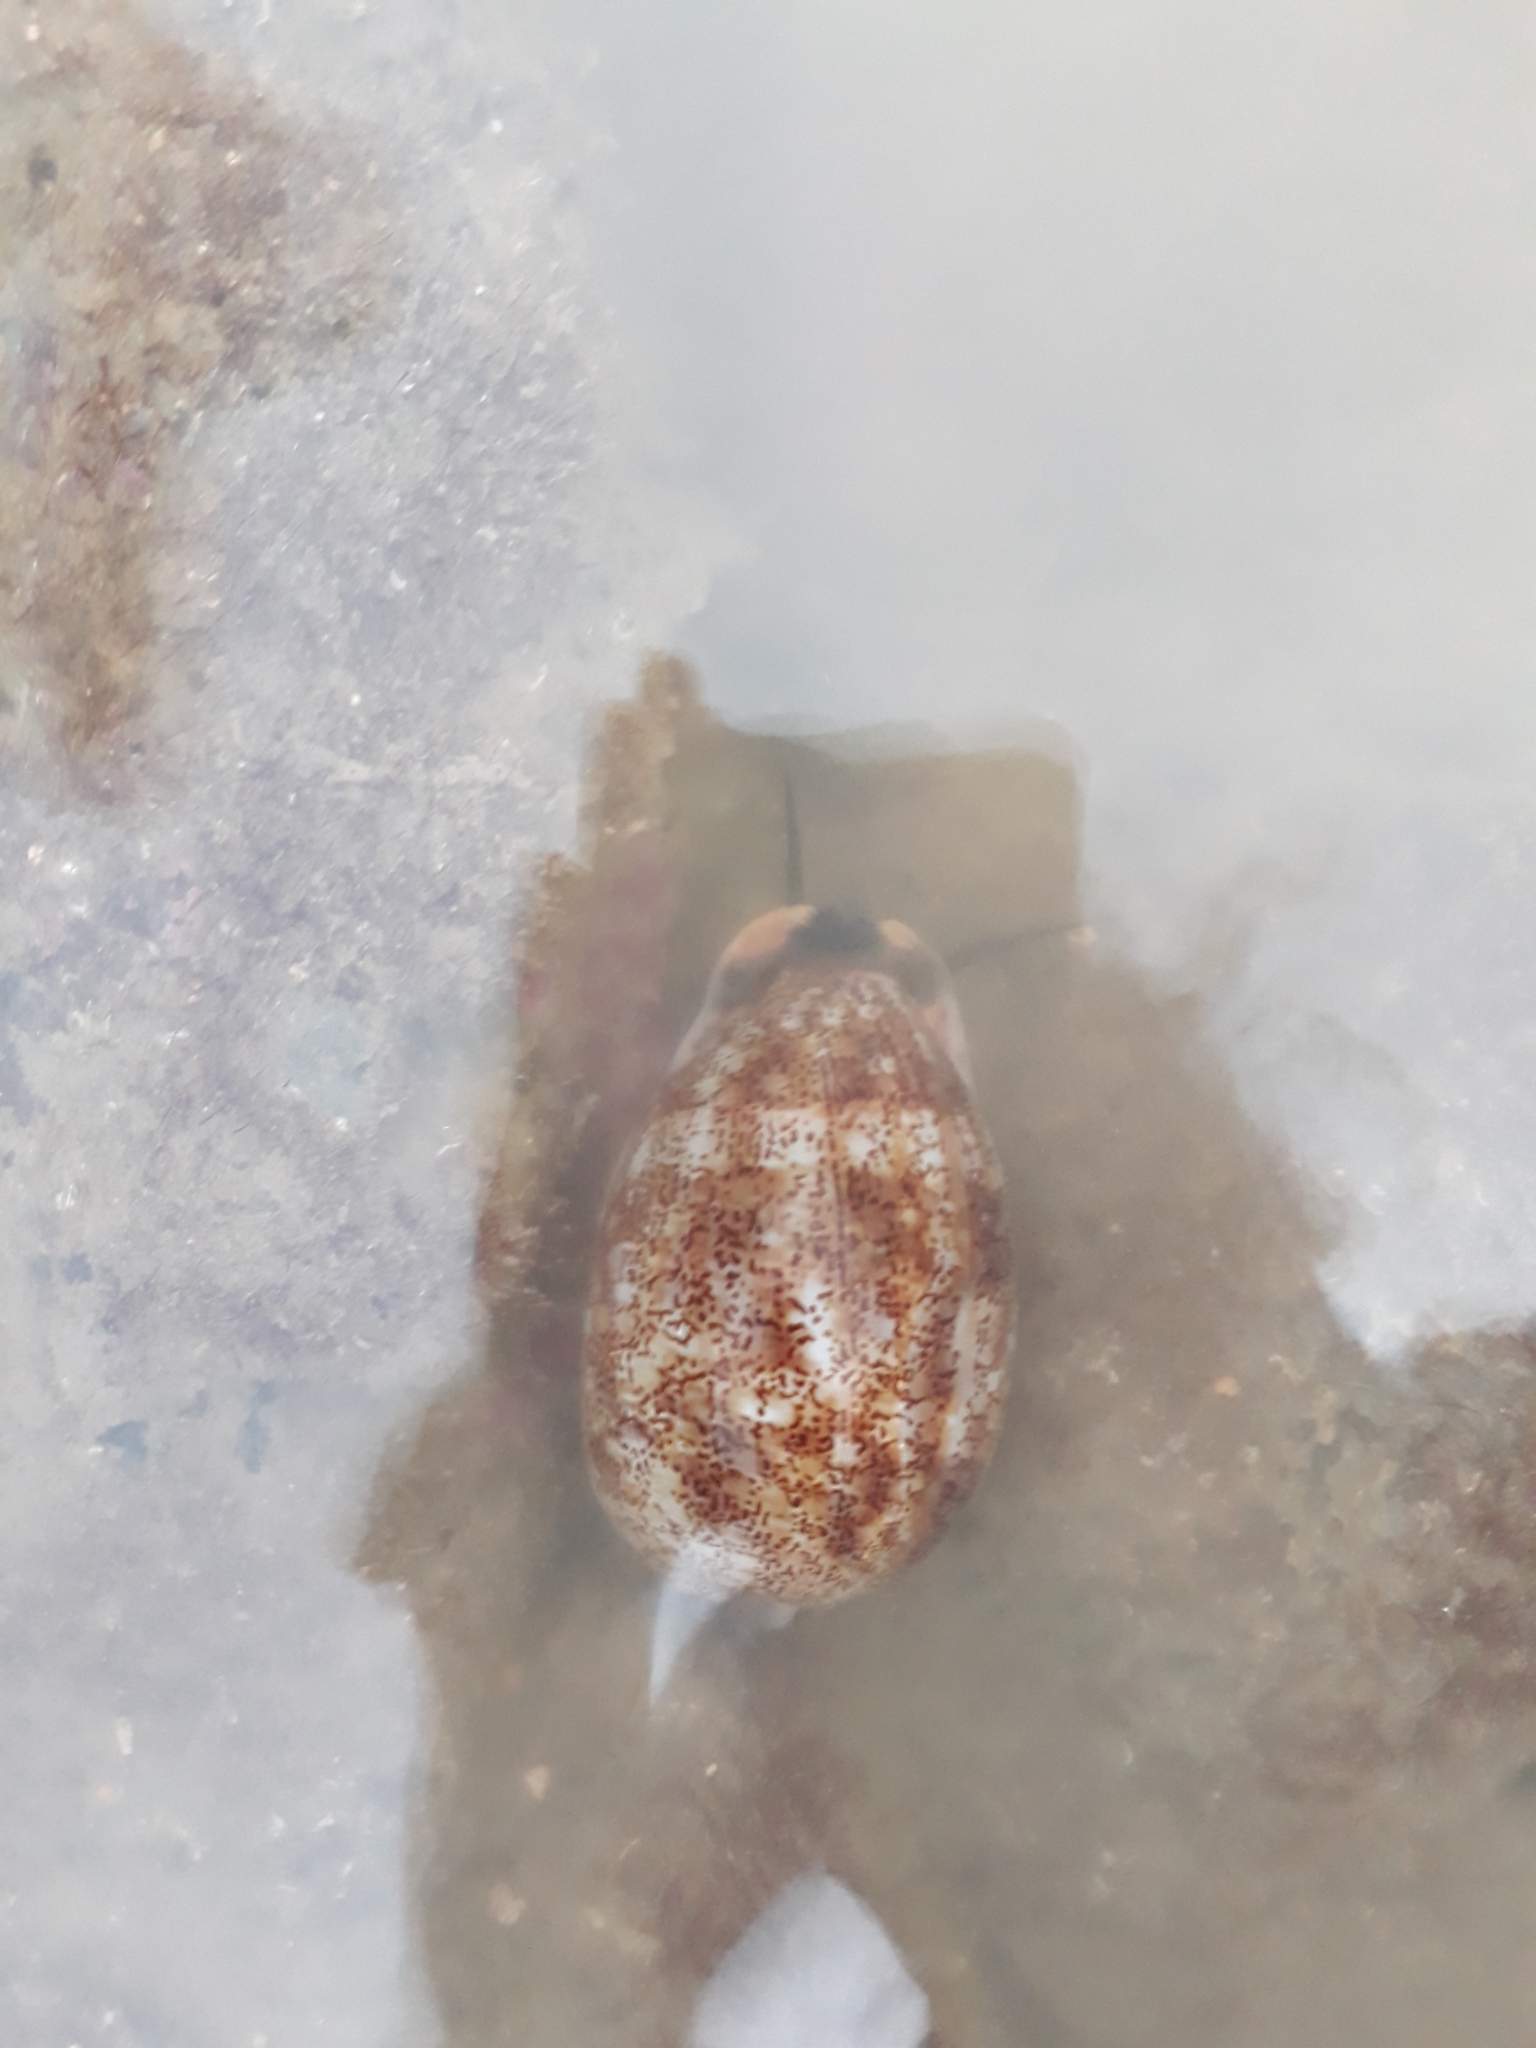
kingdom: Animalia
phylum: Mollusca
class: Gastropoda
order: Littorinimorpha
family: Cypraeidae
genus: Mauritia
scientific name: Mauritia arabica
